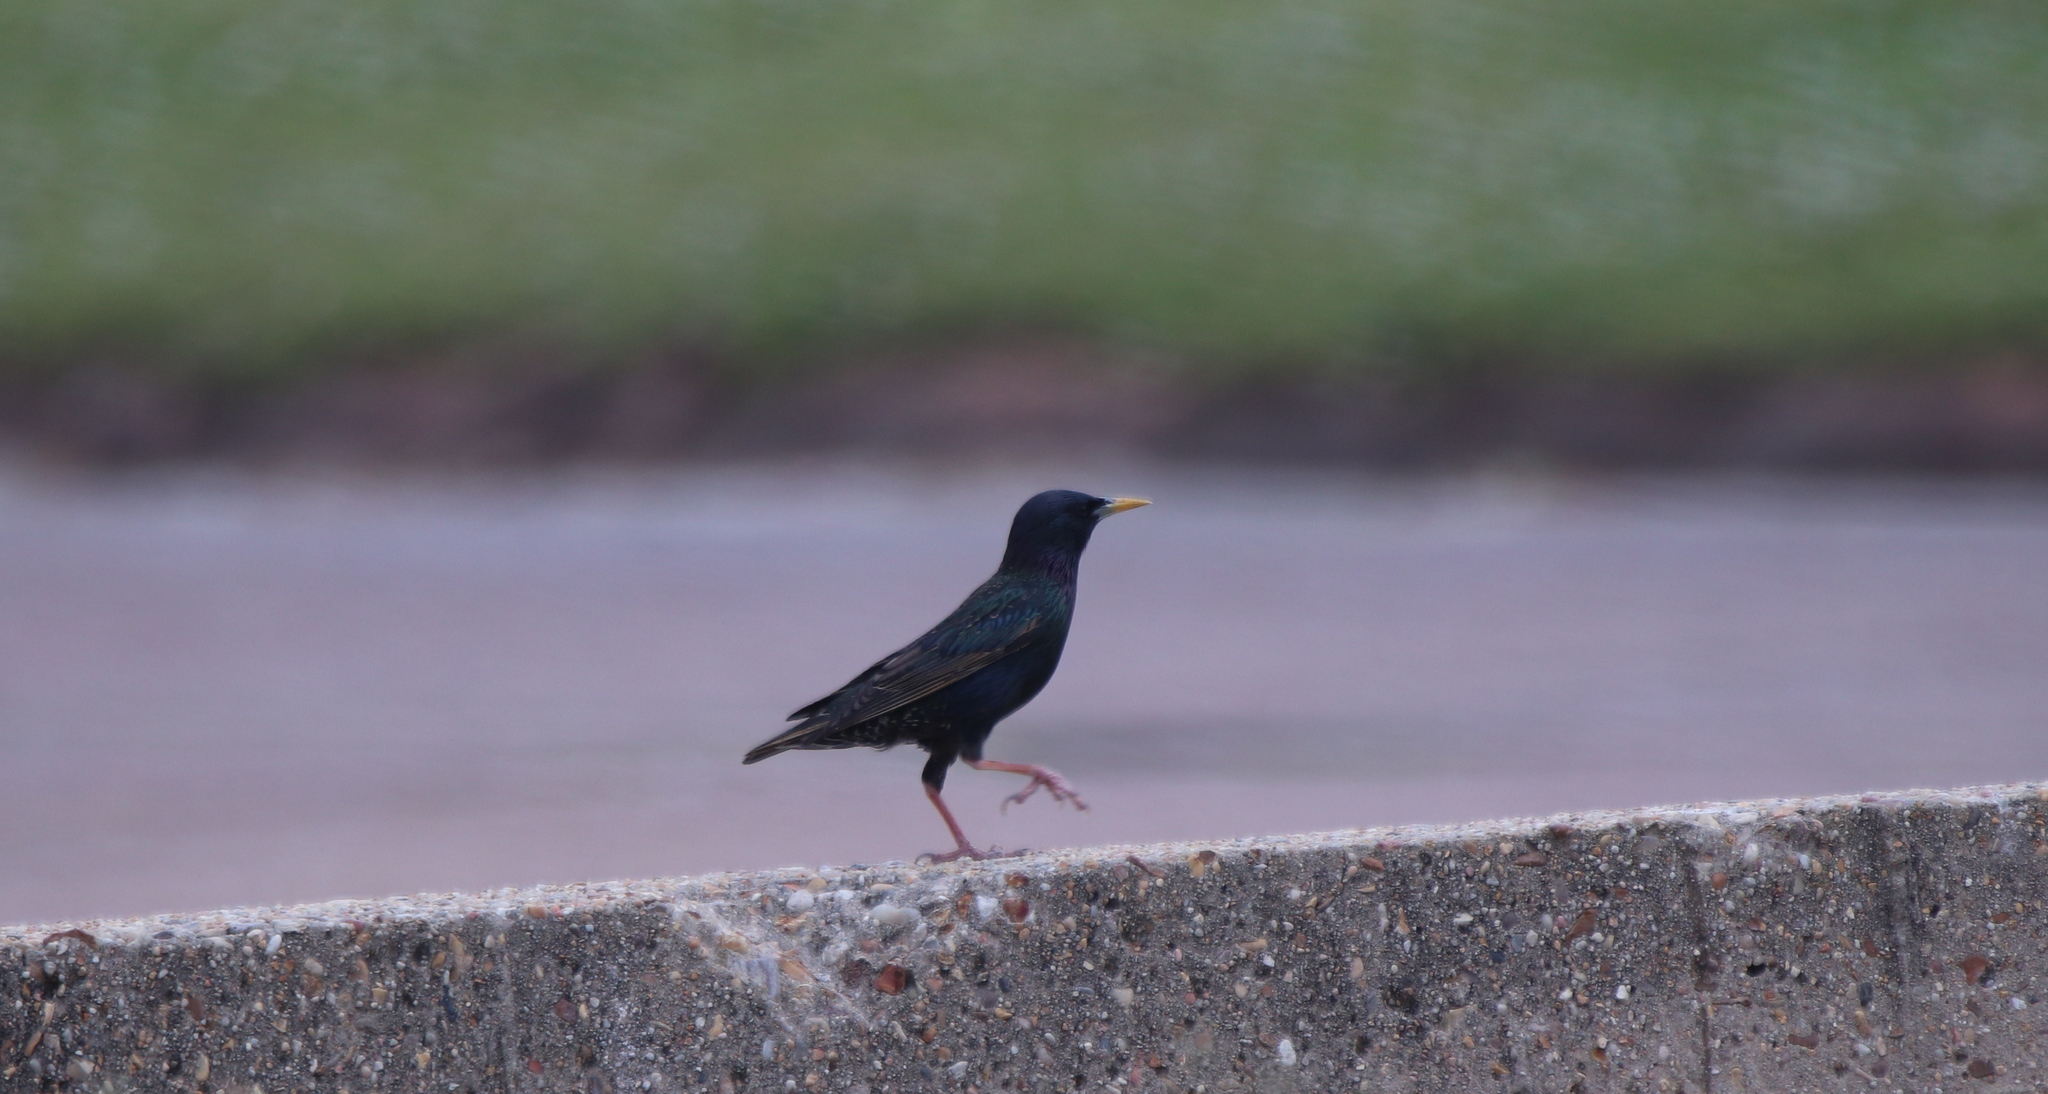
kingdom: Animalia
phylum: Chordata
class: Aves
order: Passeriformes
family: Sturnidae
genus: Sturnus
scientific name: Sturnus vulgaris
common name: Common starling
